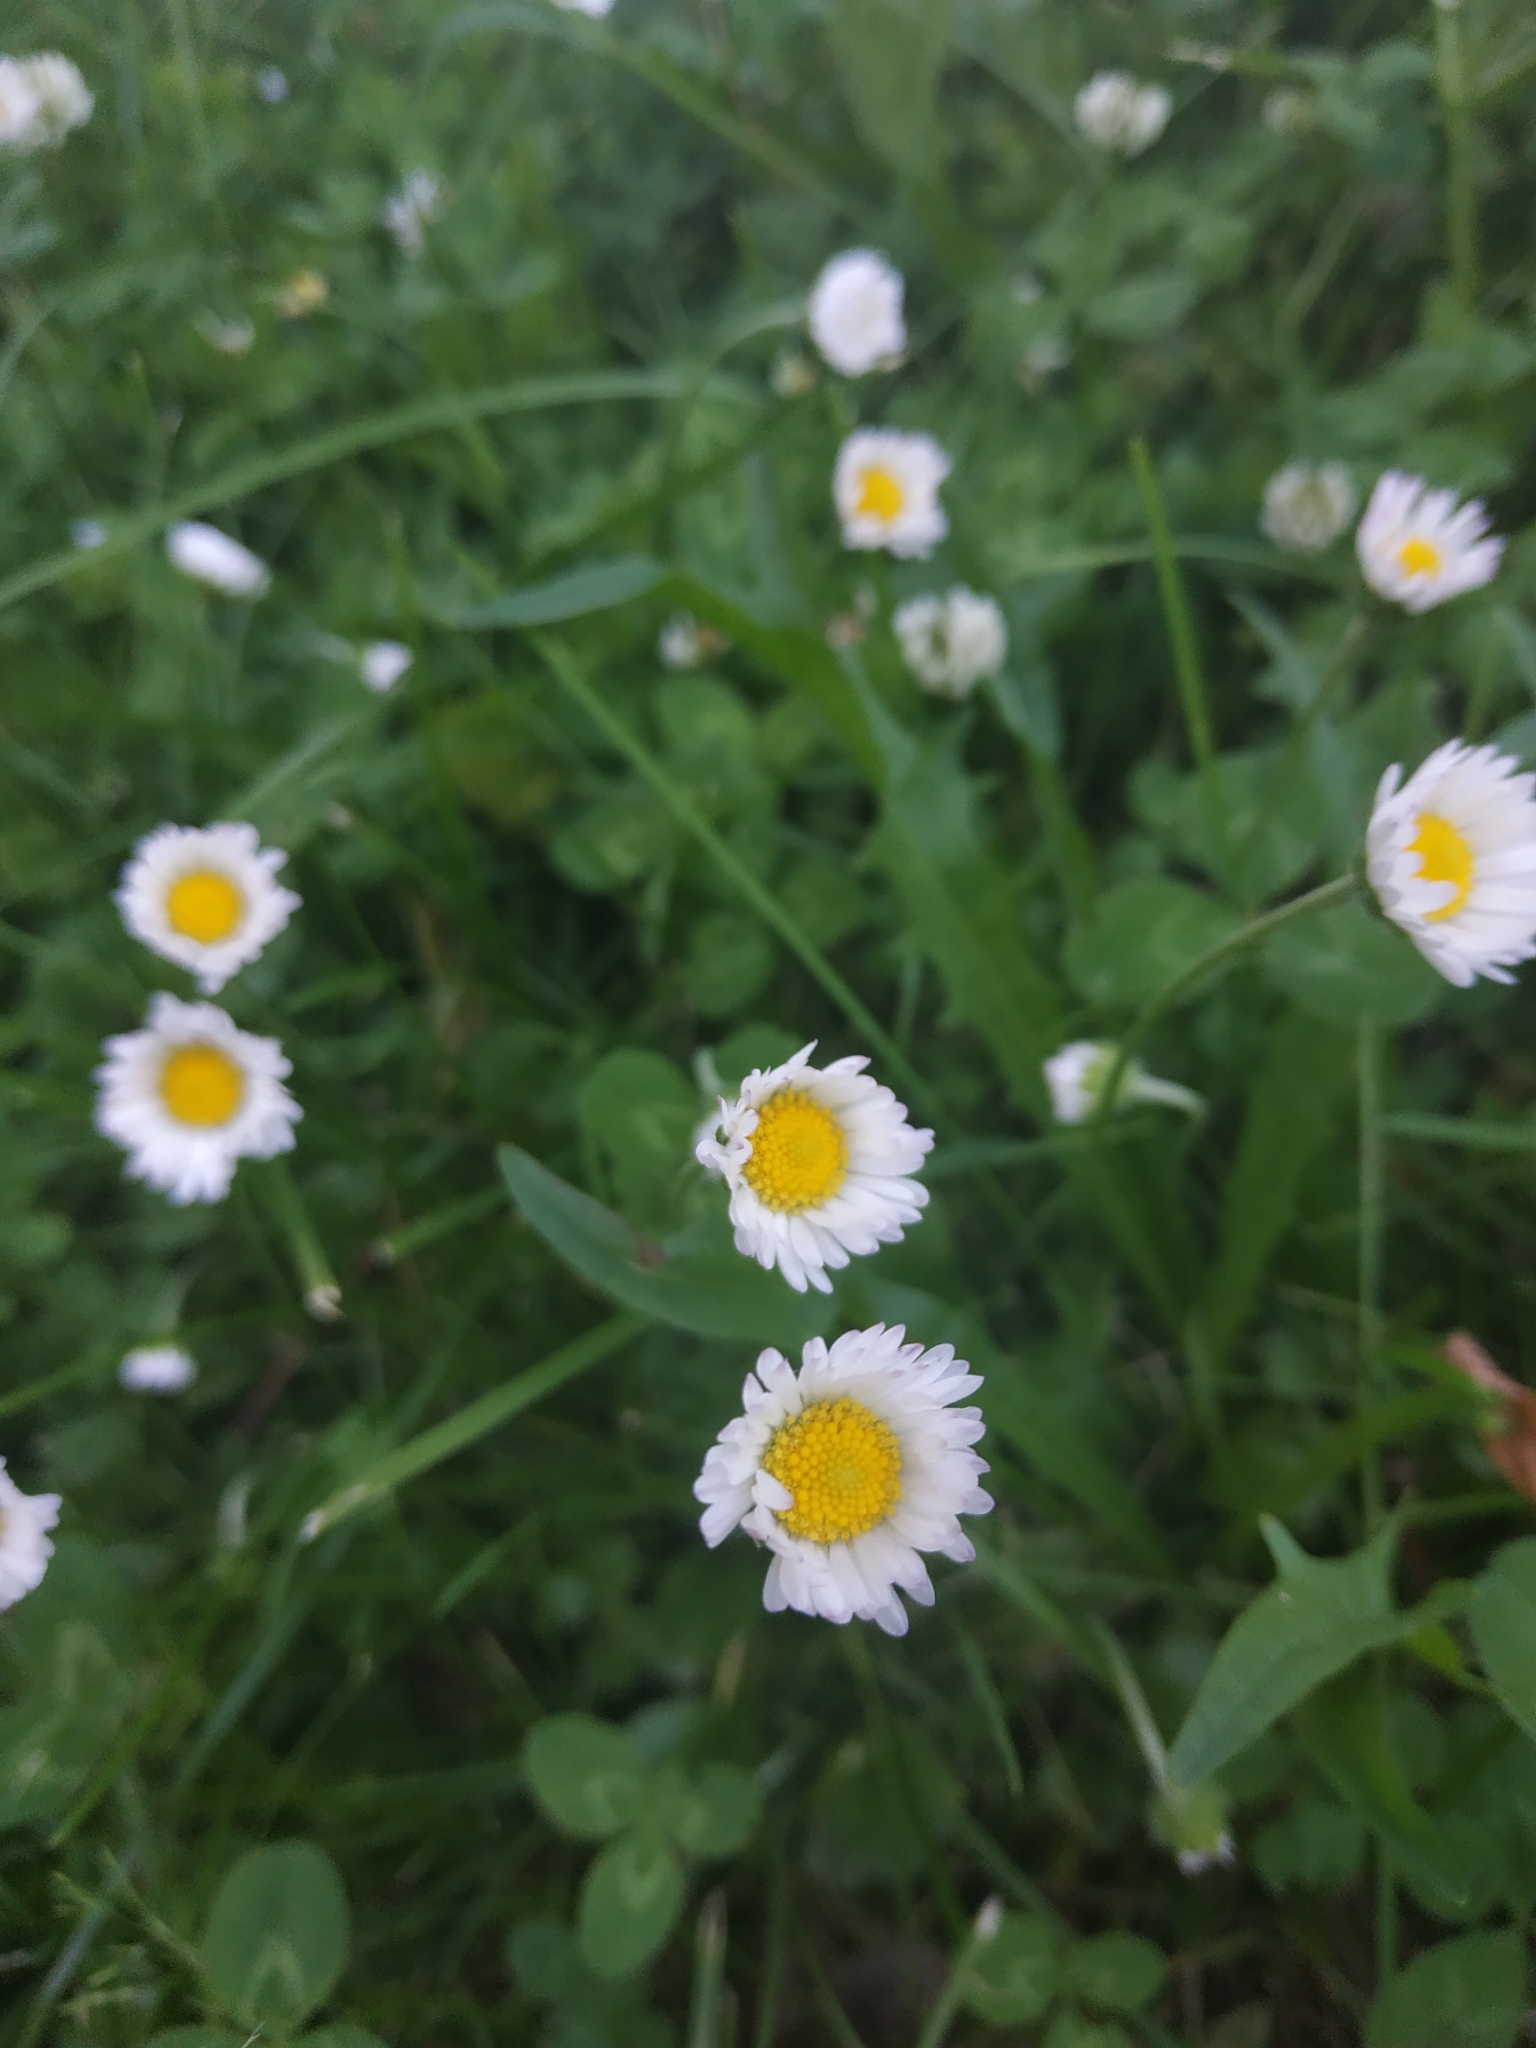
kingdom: Plantae
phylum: Tracheophyta
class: Magnoliopsida
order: Asterales
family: Asteraceae
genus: Bellis
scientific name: Bellis perennis
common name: Lawndaisy
